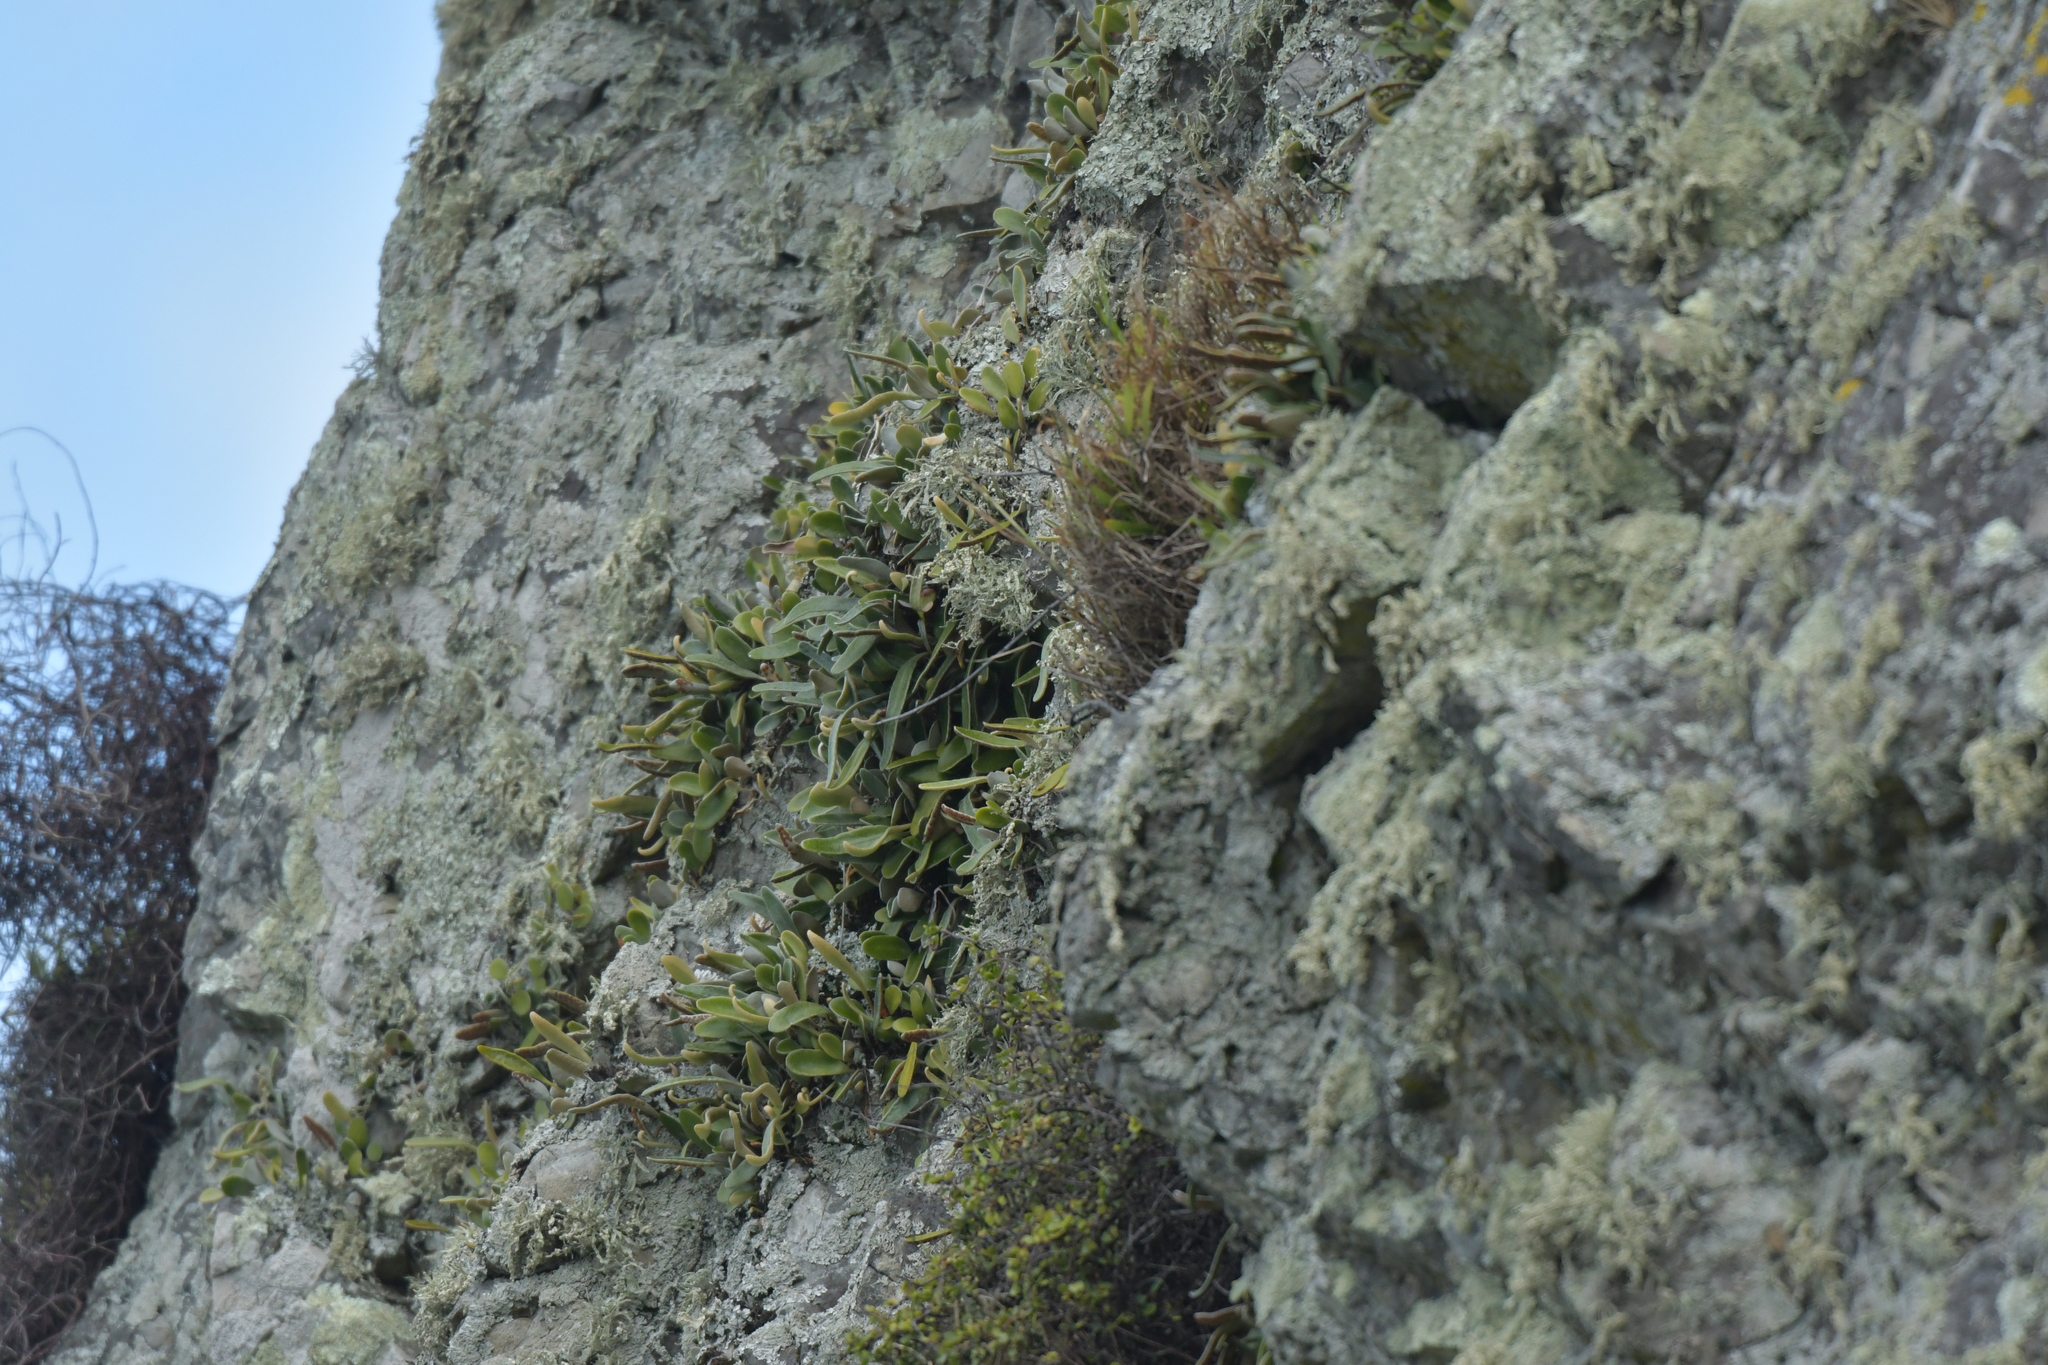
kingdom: Plantae
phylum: Tracheophyta
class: Polypodiopsida
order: Polypodiales
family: Polypodiaceae
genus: Pyrrosia
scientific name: Pyrrosia eleagnifolia
